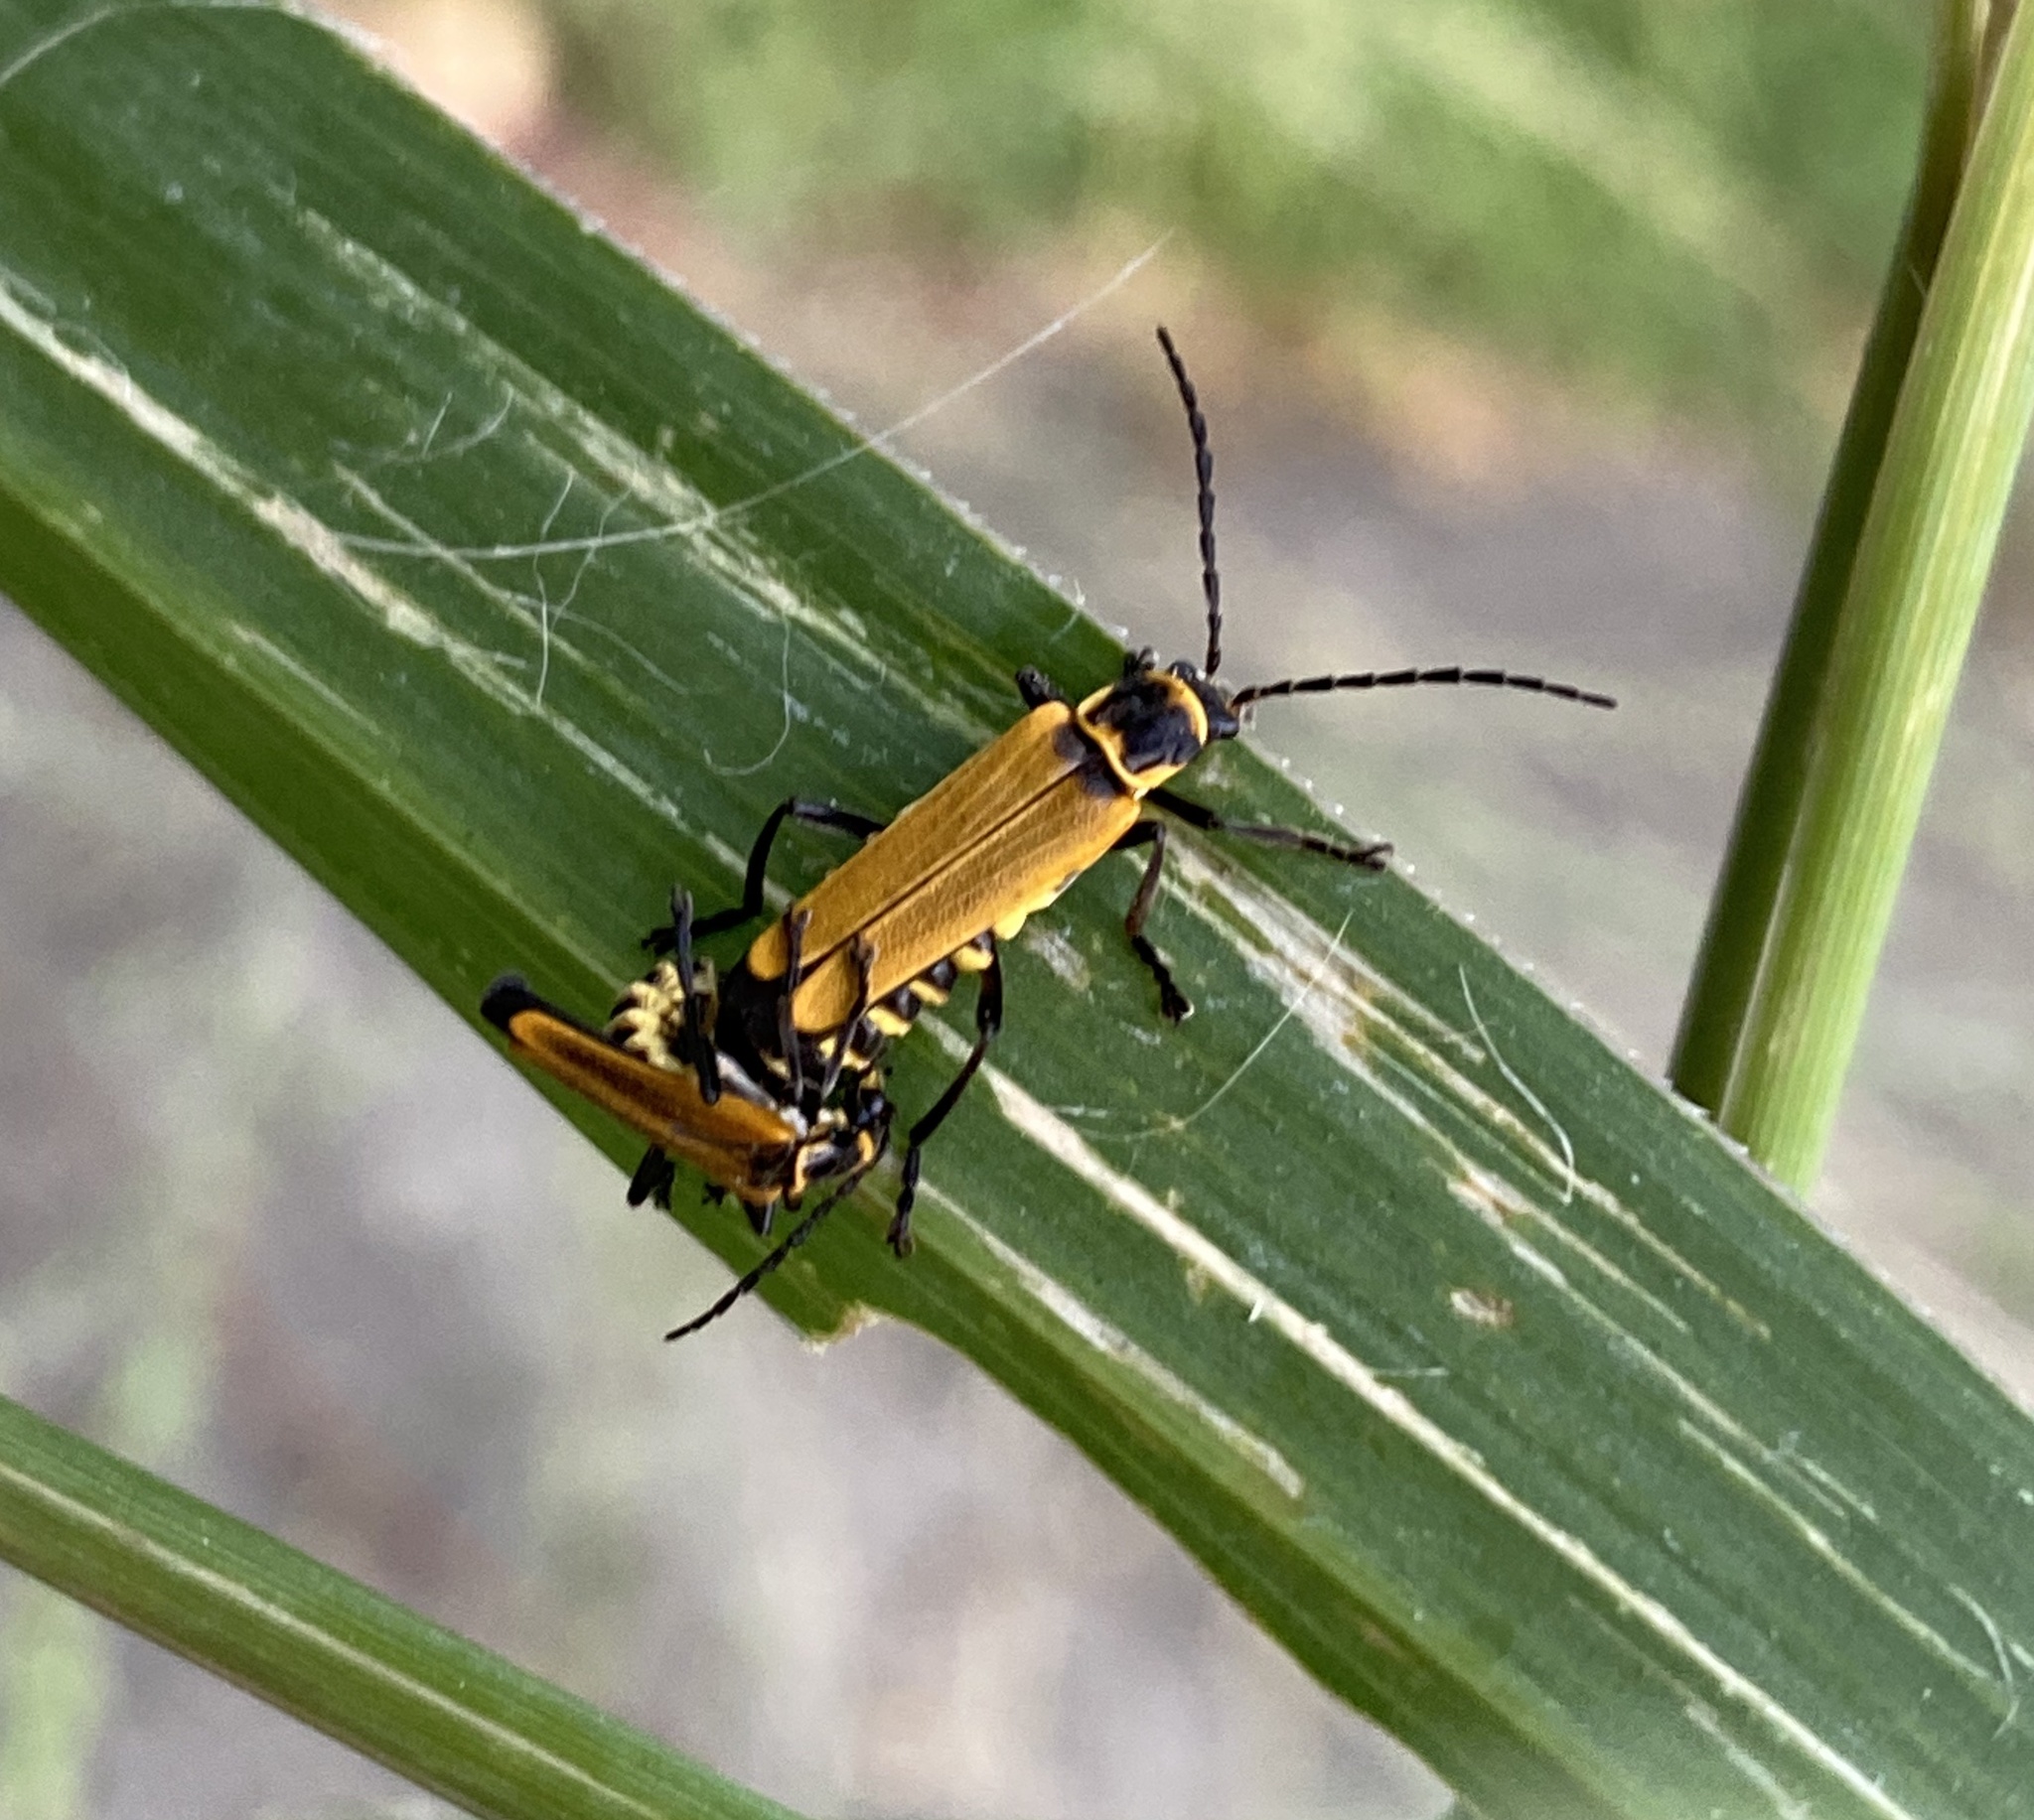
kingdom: Animalia
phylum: Arthropoda
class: Insecta
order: Coleoptera
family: Cantharidae
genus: Chauliognathus
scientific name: Chauliognathus
